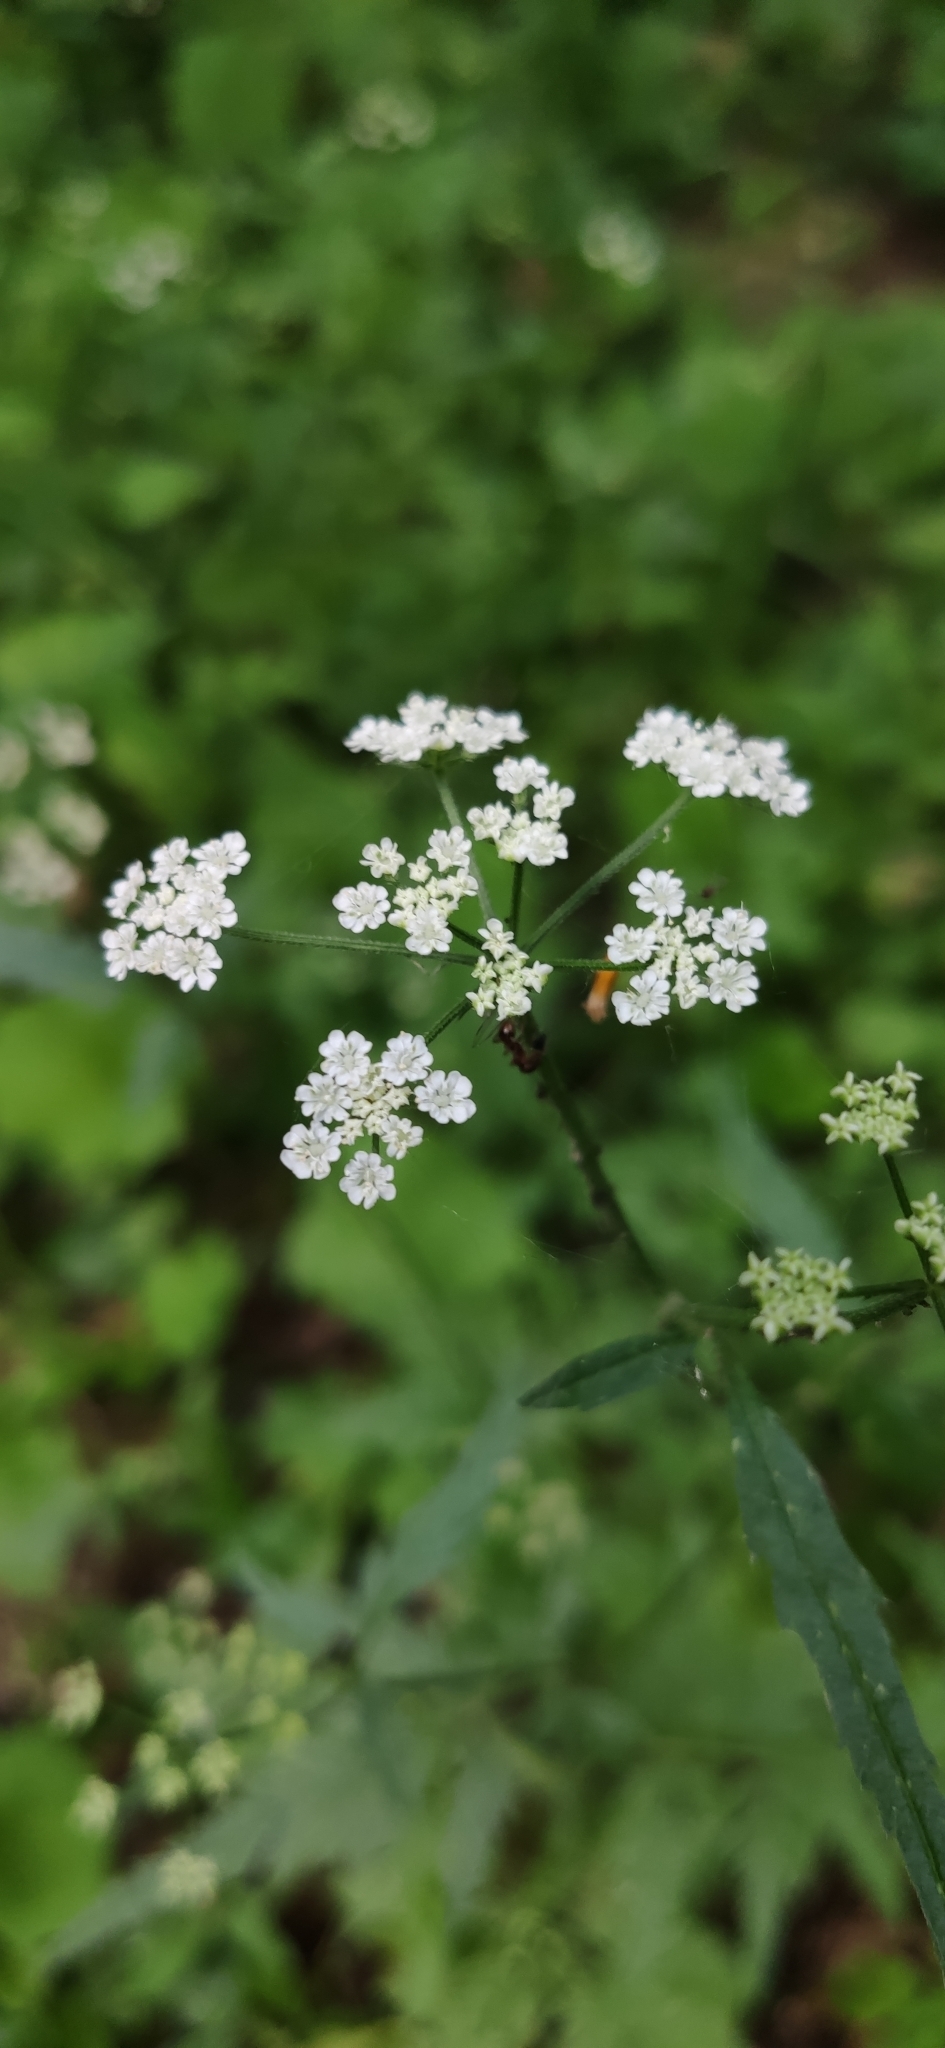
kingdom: Plantae
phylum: Tracheophyta
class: Magnoliopsida
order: Apiales
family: Apiaceae
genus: Torilis
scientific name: Torilis japonica
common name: Upright hedge-parsley
